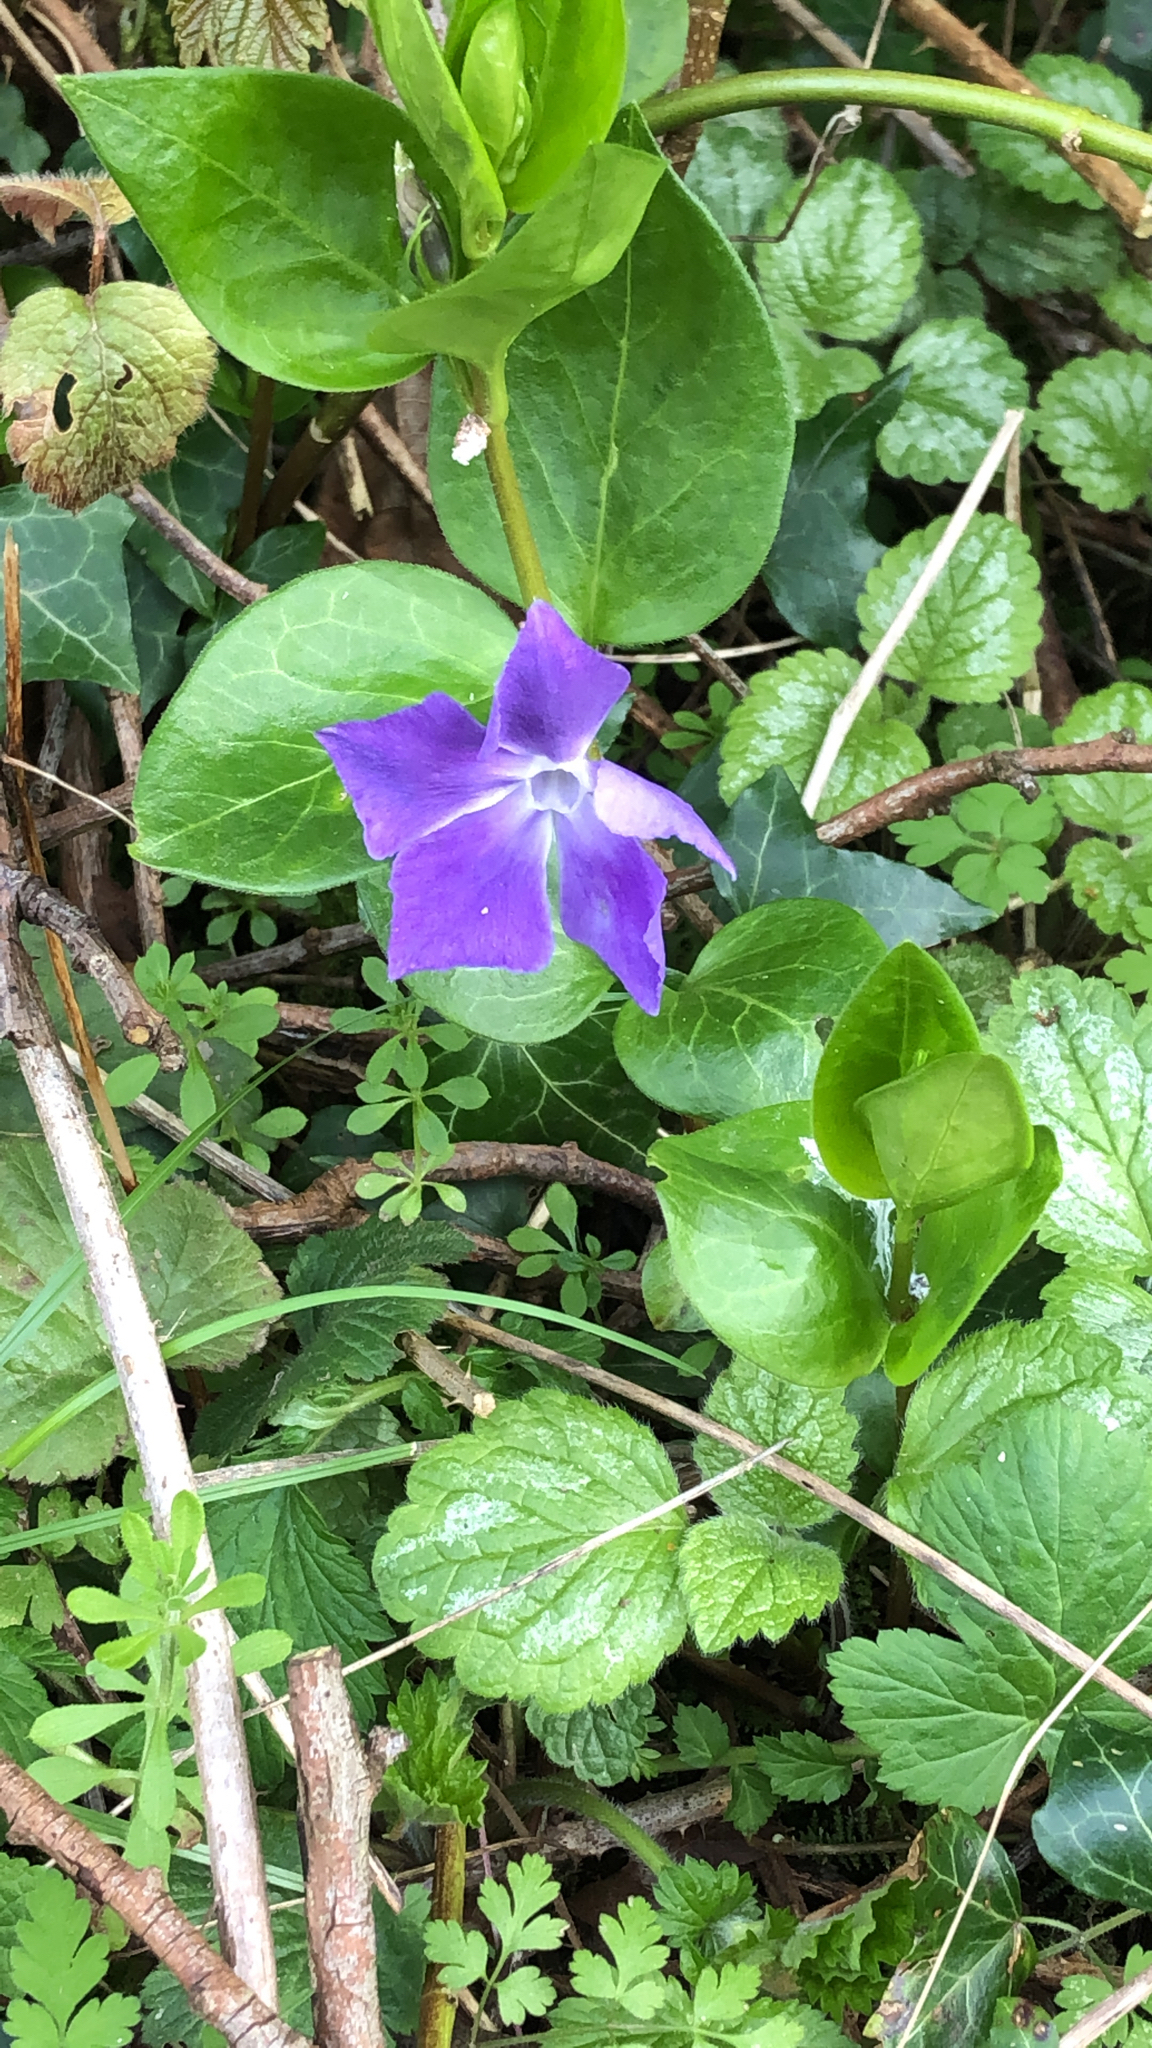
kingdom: Plantae
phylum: Tracheophyta
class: Magnoliopsida
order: Gentianales
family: Apocynaceae
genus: Vinca
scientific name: Vinca major
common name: Greater periwinkle
